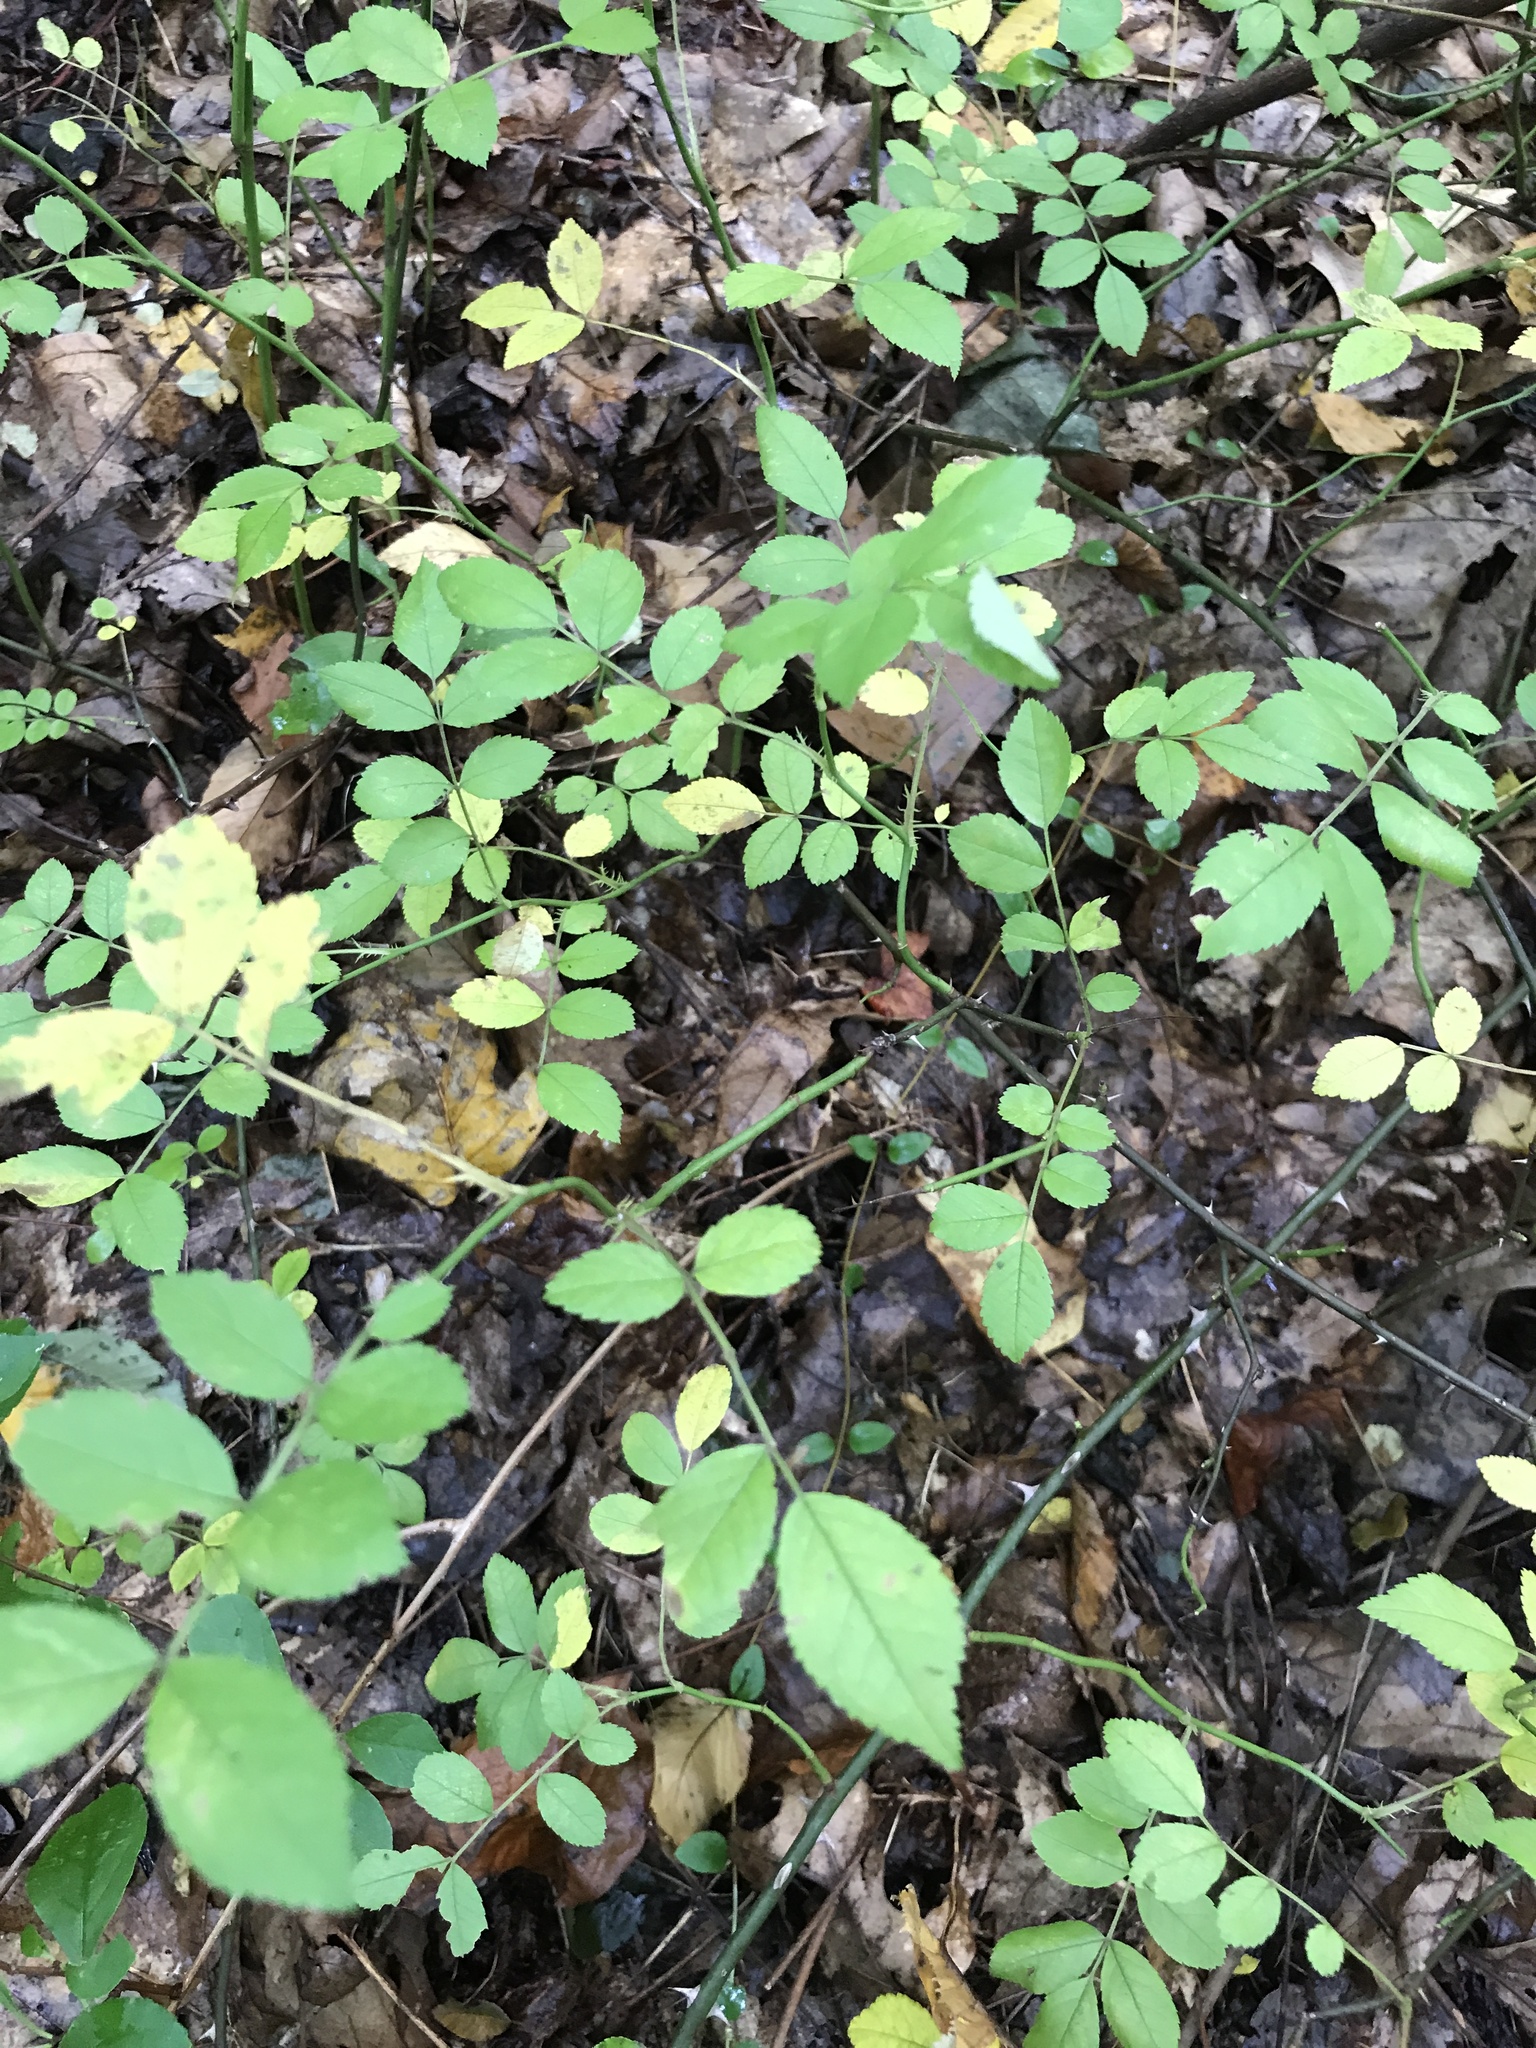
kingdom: Plantae
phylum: Tracheophyta
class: Magnoliopsida
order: Rosales
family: Rosaceae
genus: Rosa
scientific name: Rosa multiflora
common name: Multiflora rose
